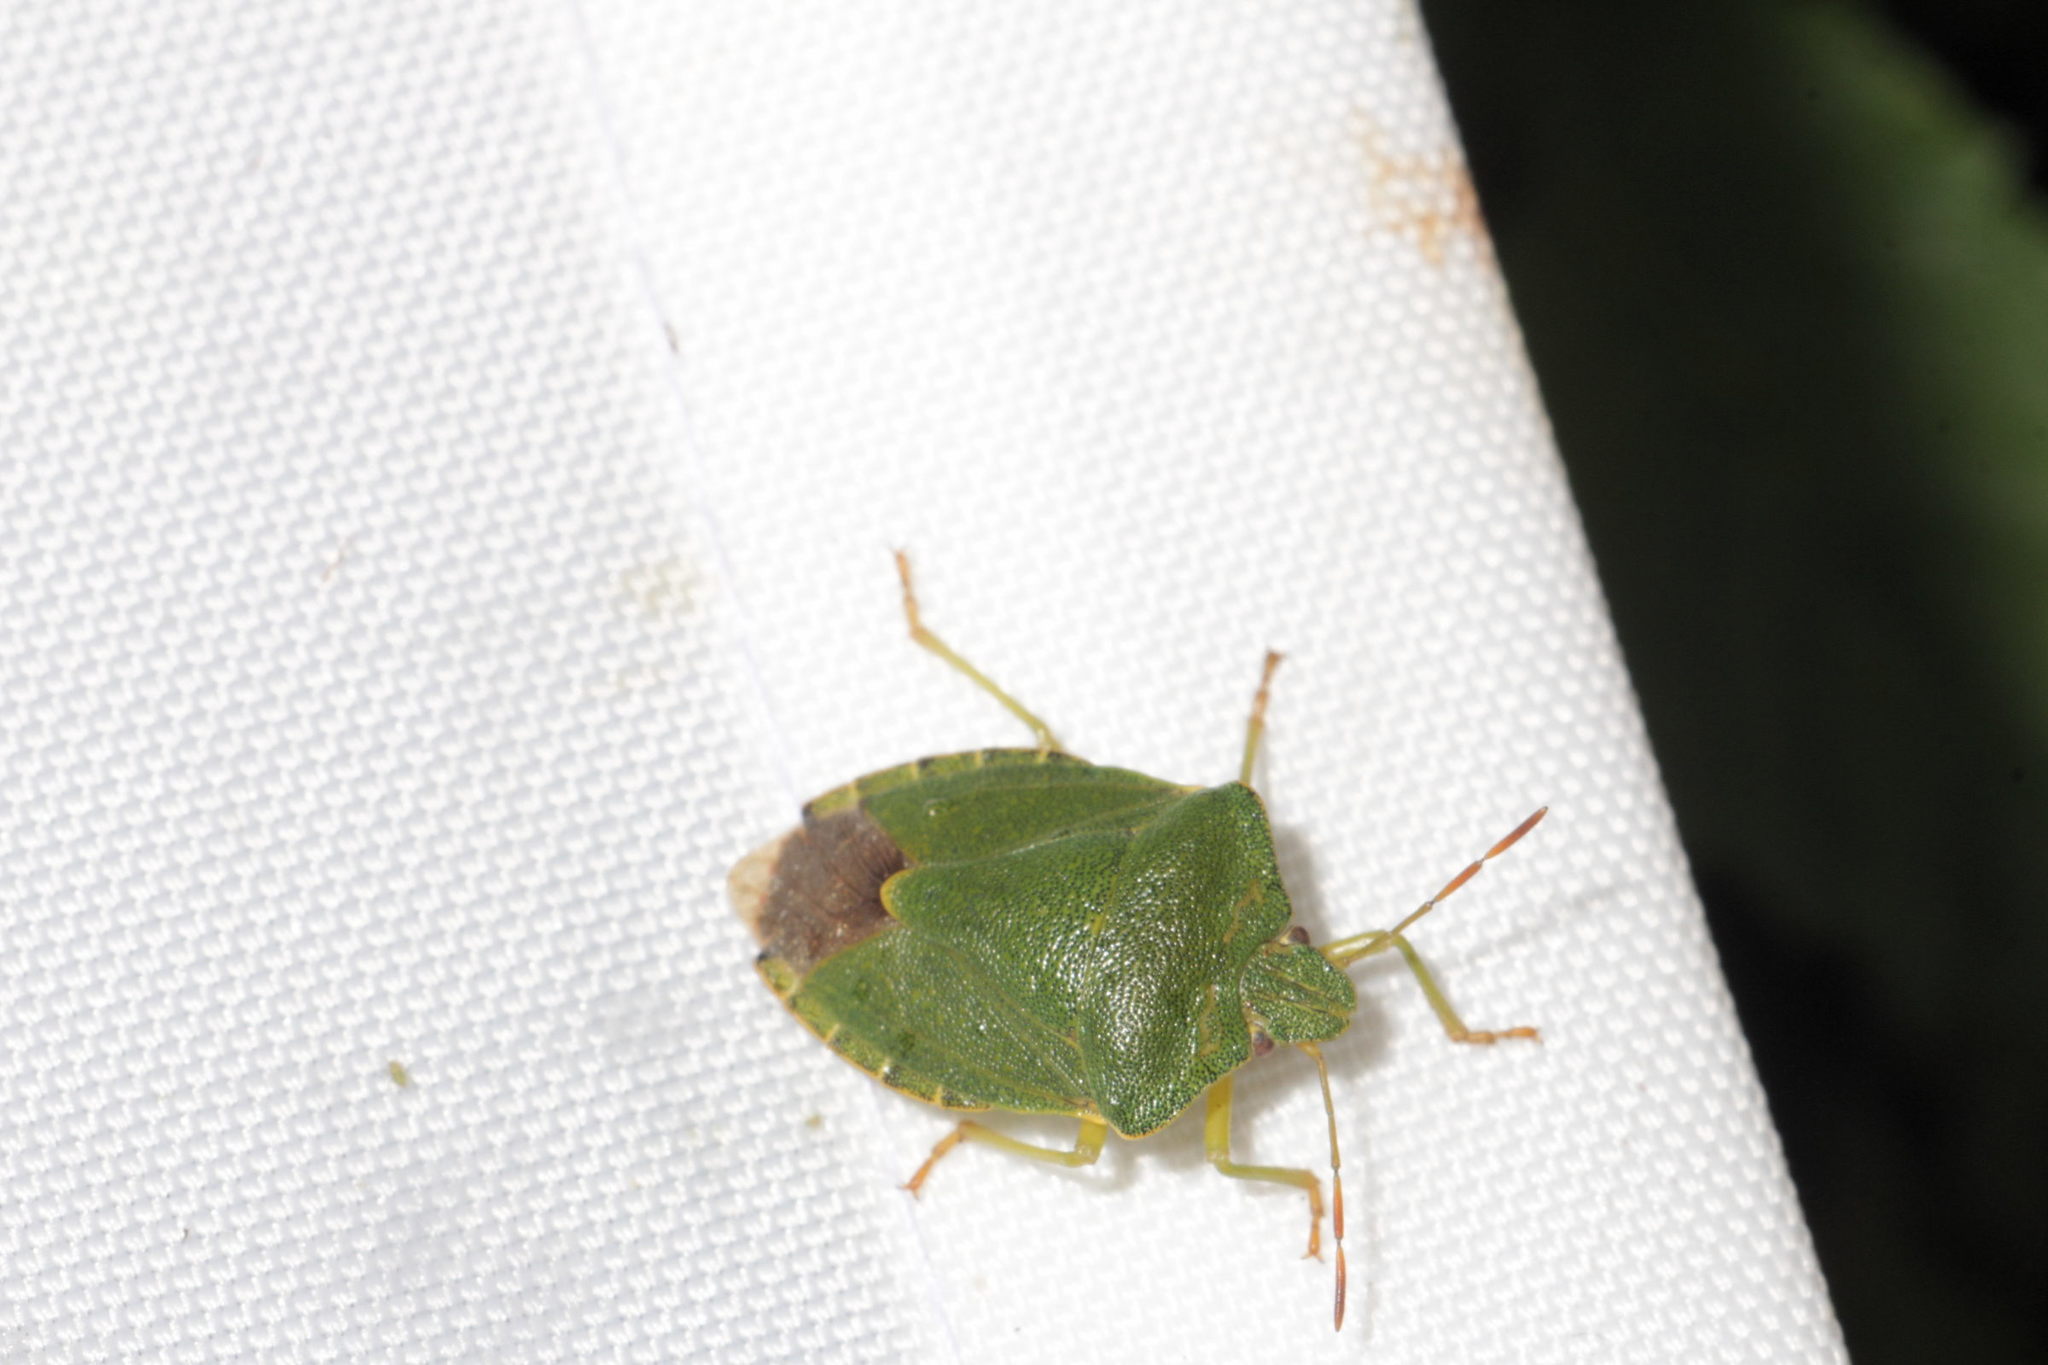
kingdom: Animalia
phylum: Arthropoda
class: Insecta
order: Hemiptera
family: Pentatomidae
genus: Palomena
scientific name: Palomena prasina
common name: Green shieldbug
